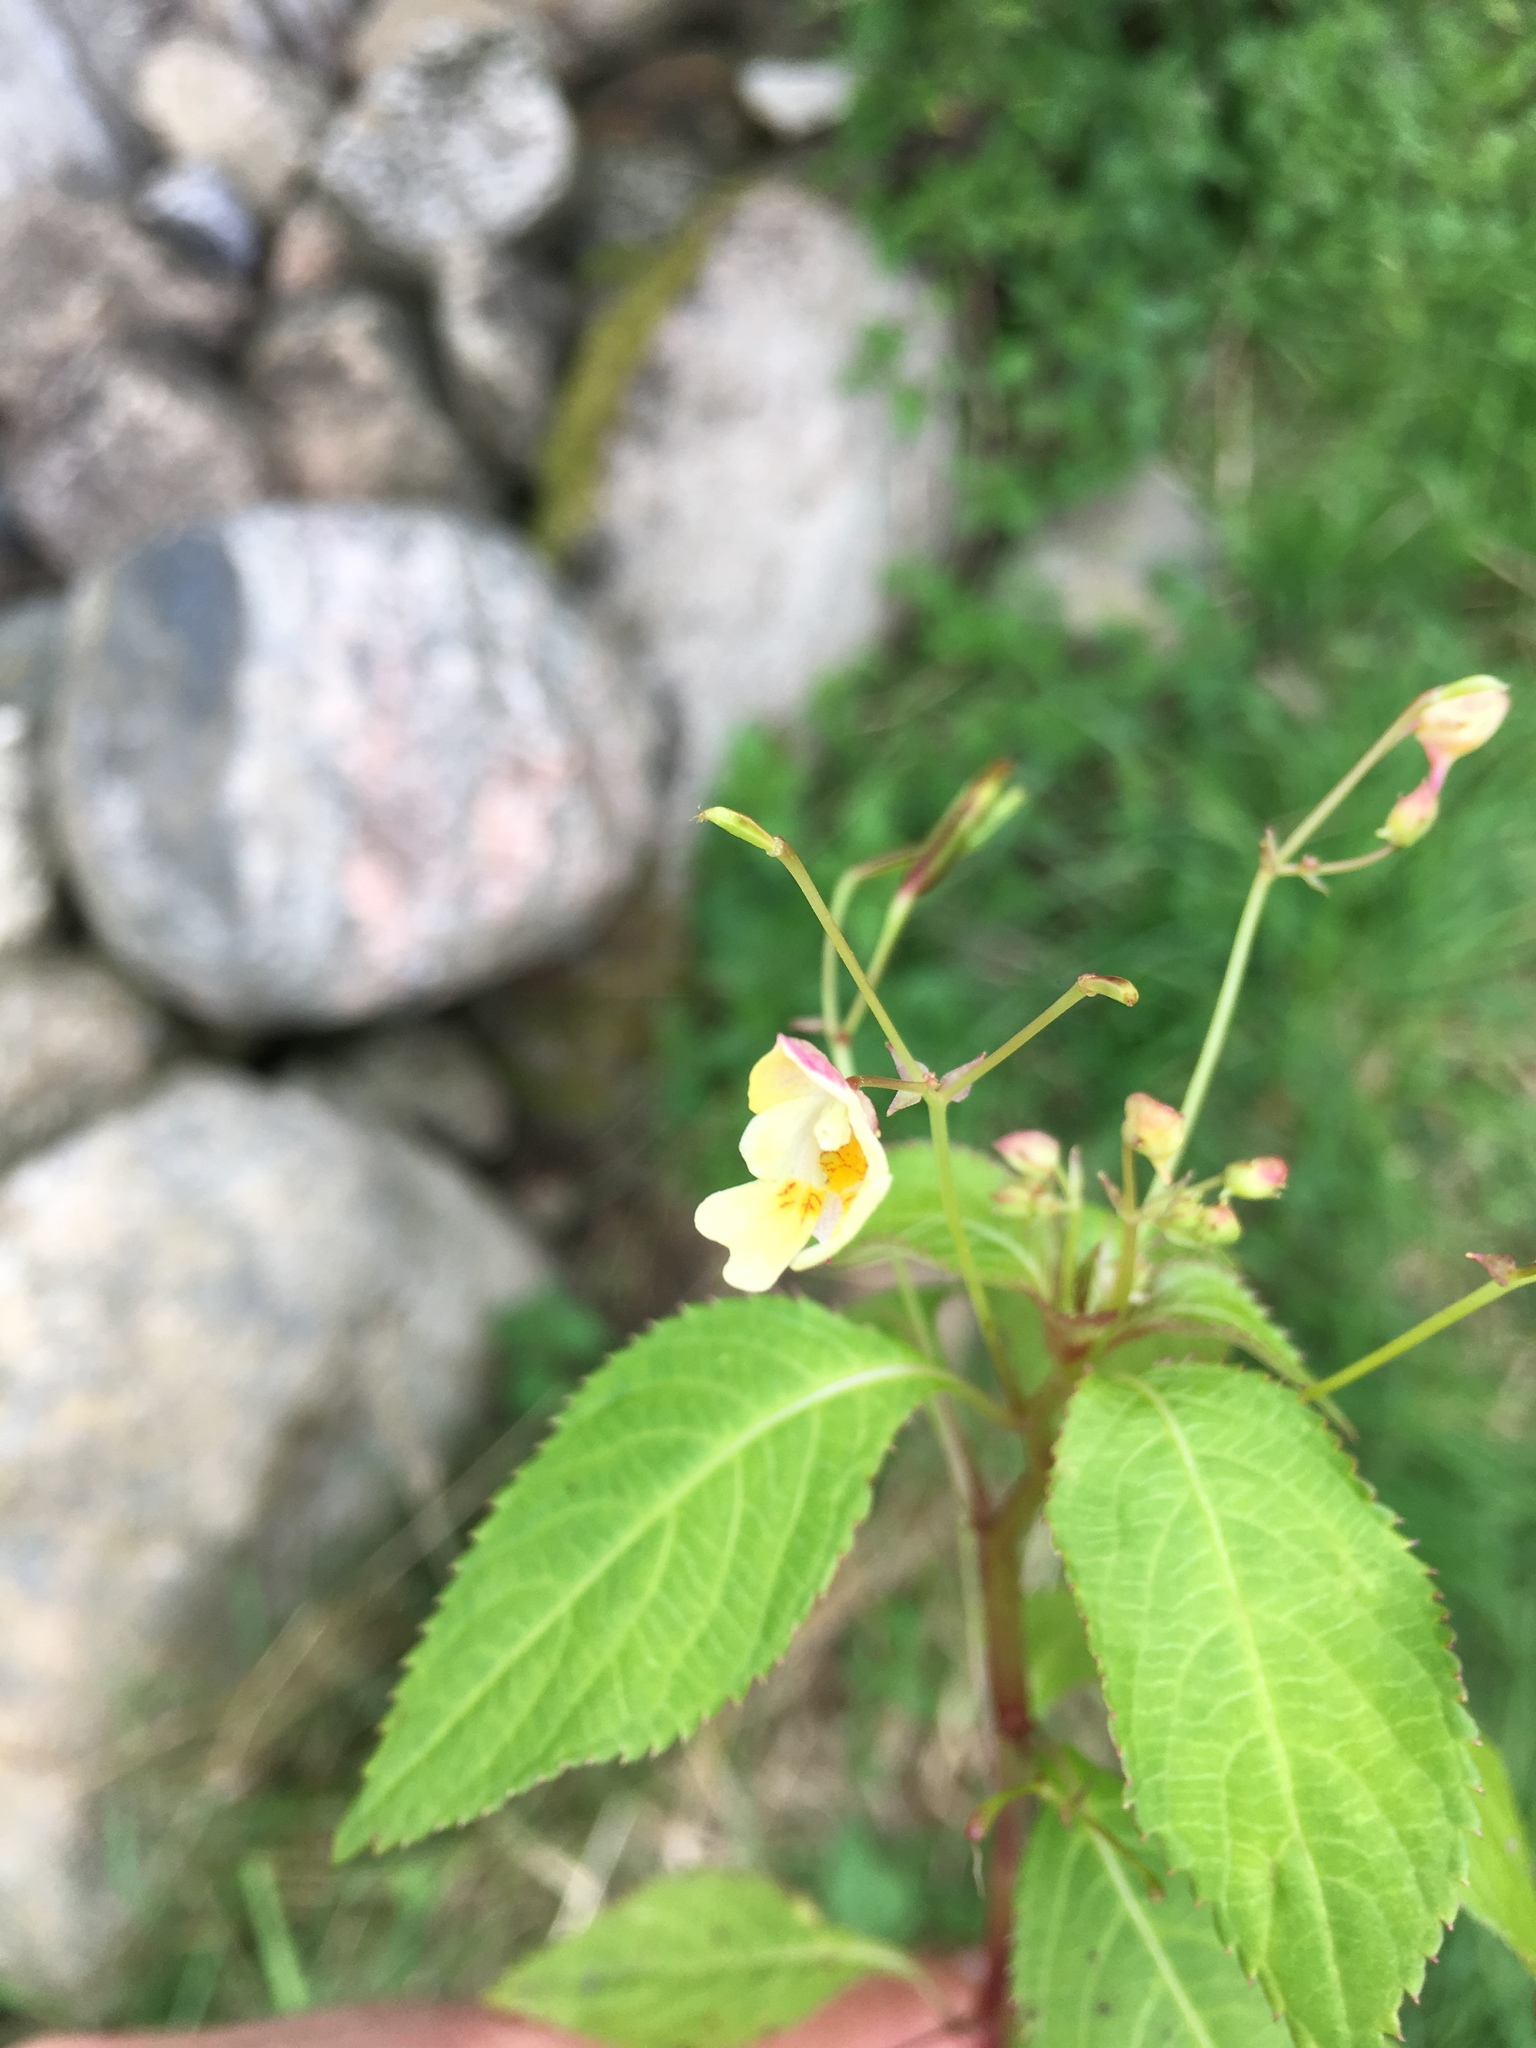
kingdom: Plantae
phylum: Tracheophyta
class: Magnoliopsida
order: Ericales
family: Balsaminaceae
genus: Impatiens
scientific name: Impatiens parviflora
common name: Small balsam
